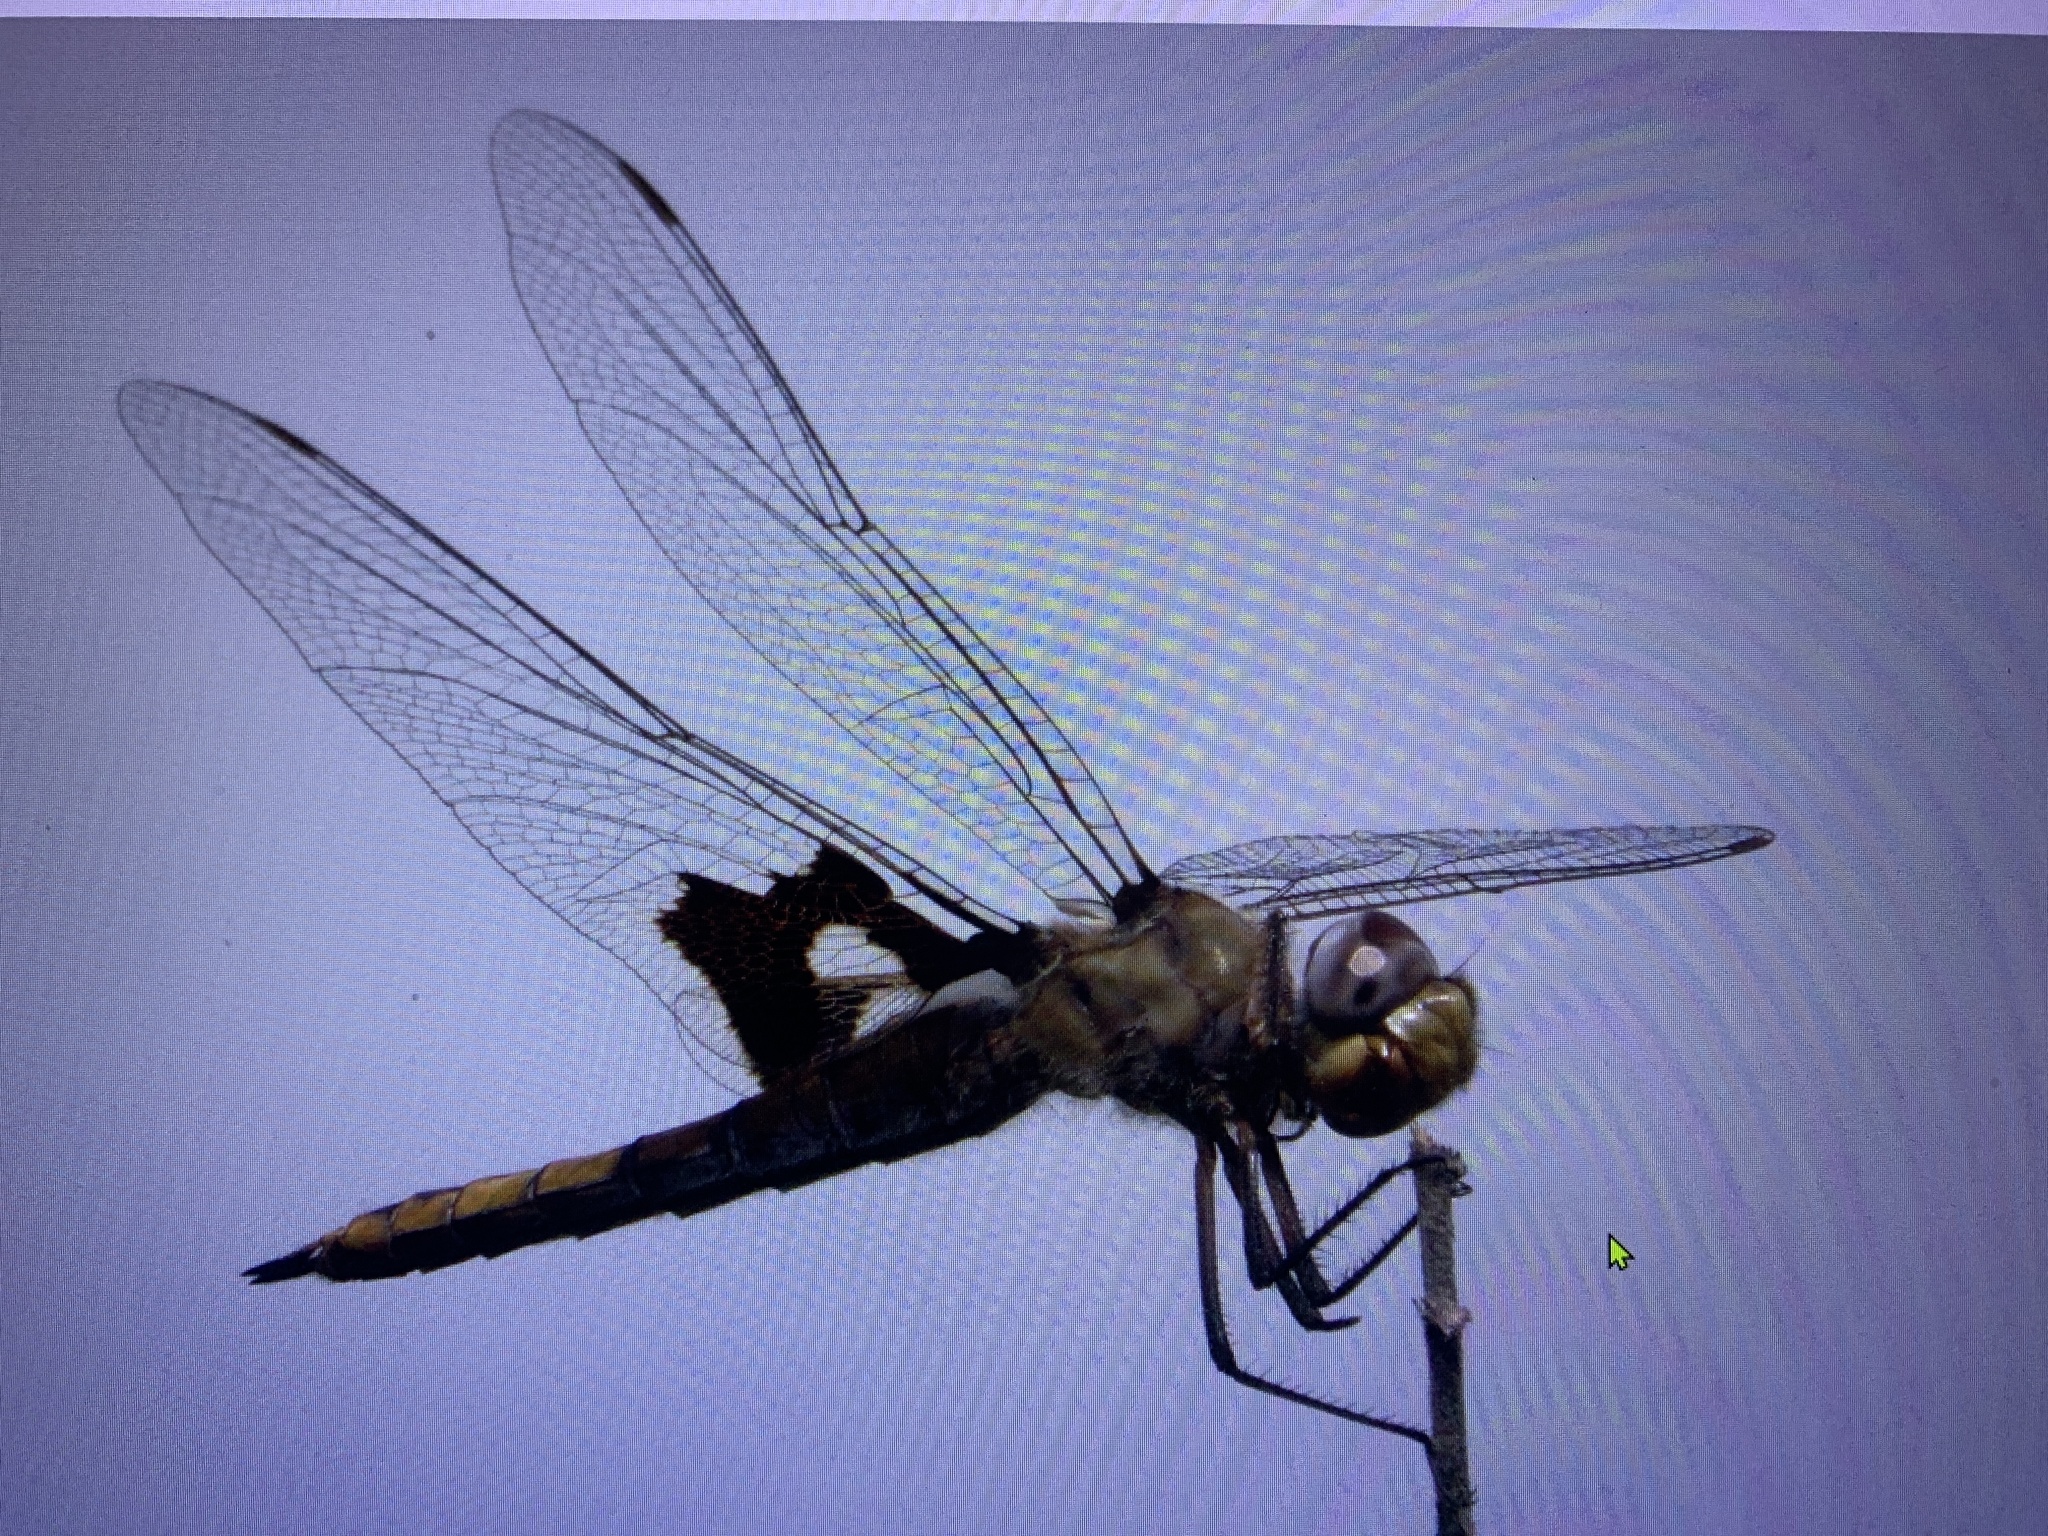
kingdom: Animalia
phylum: Arthropoda
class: Insecta
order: Odonata
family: Libellulidae
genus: Tramea
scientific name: Tramea onusta
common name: Red saddlebags
